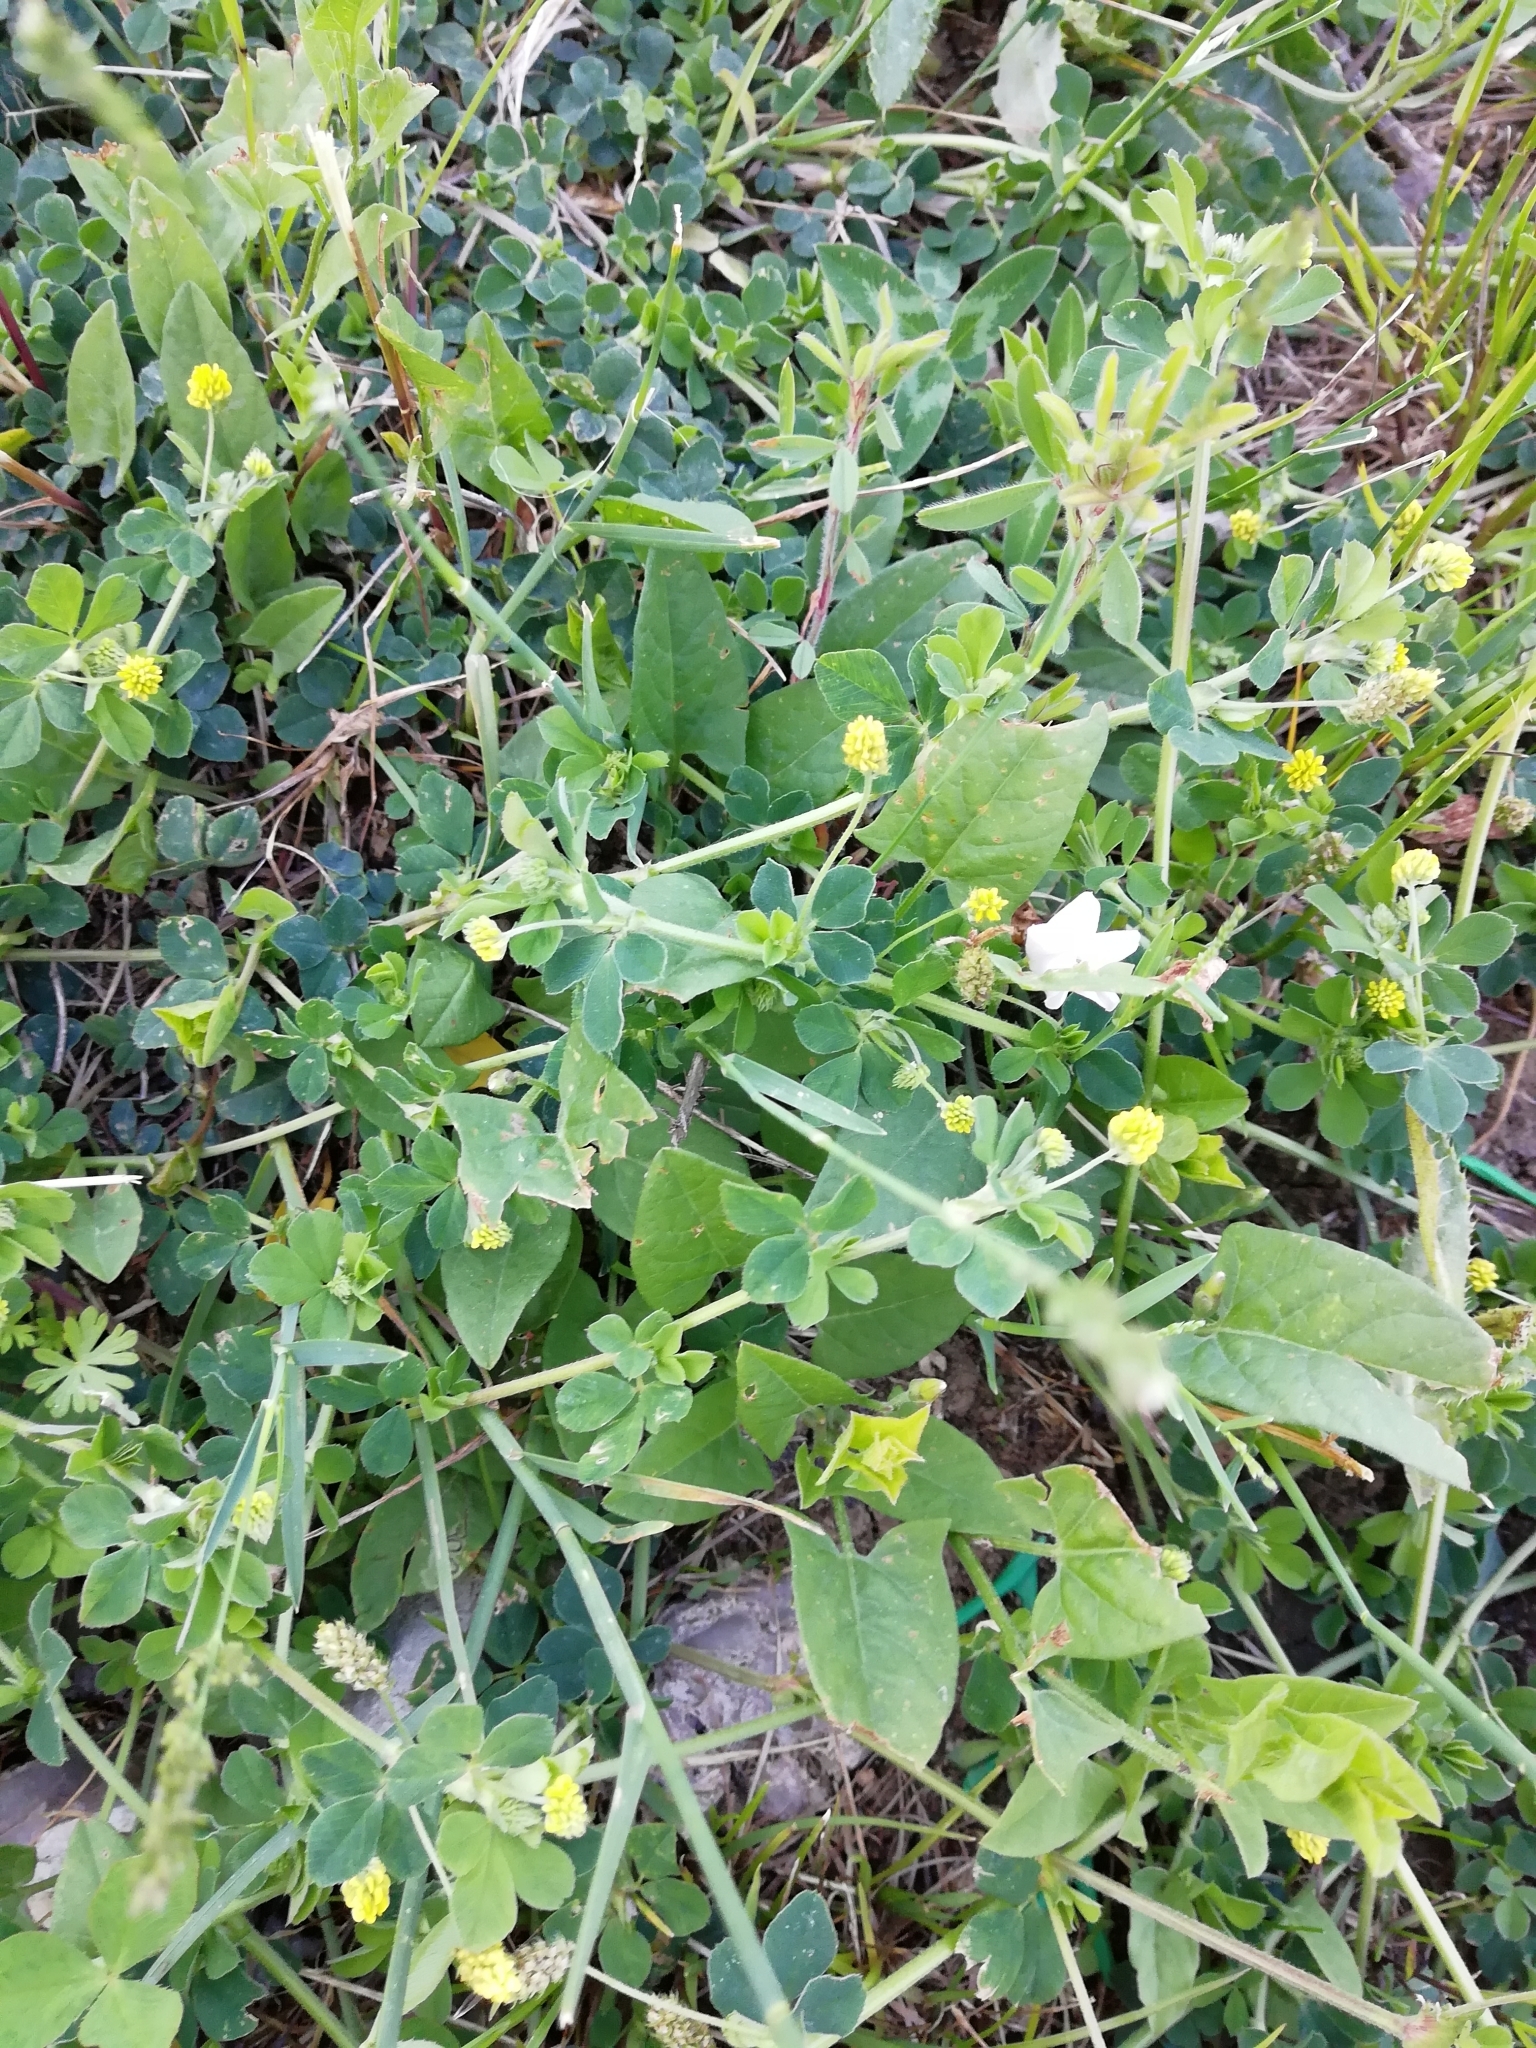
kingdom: Plantae
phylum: Tracheophyta
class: Magnoliopsida
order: Fabales
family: Fabaceae
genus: Medicago
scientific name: Medicago lupulina
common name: Black medick
